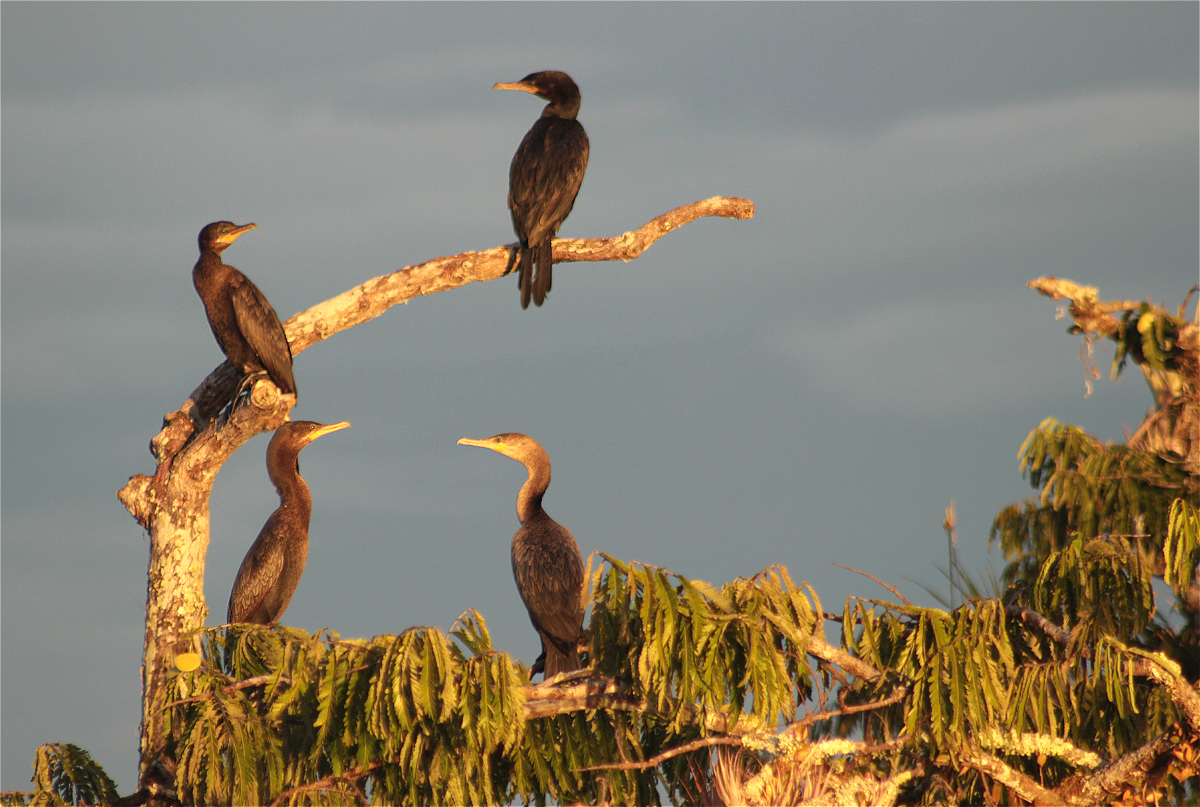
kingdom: Animalia
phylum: Chordata
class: Aves
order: Suliformes
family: Phalacrocoracidae
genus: Phalacrocorax
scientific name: Phalacrocorax brasilianus
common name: Neotropic cormorant
